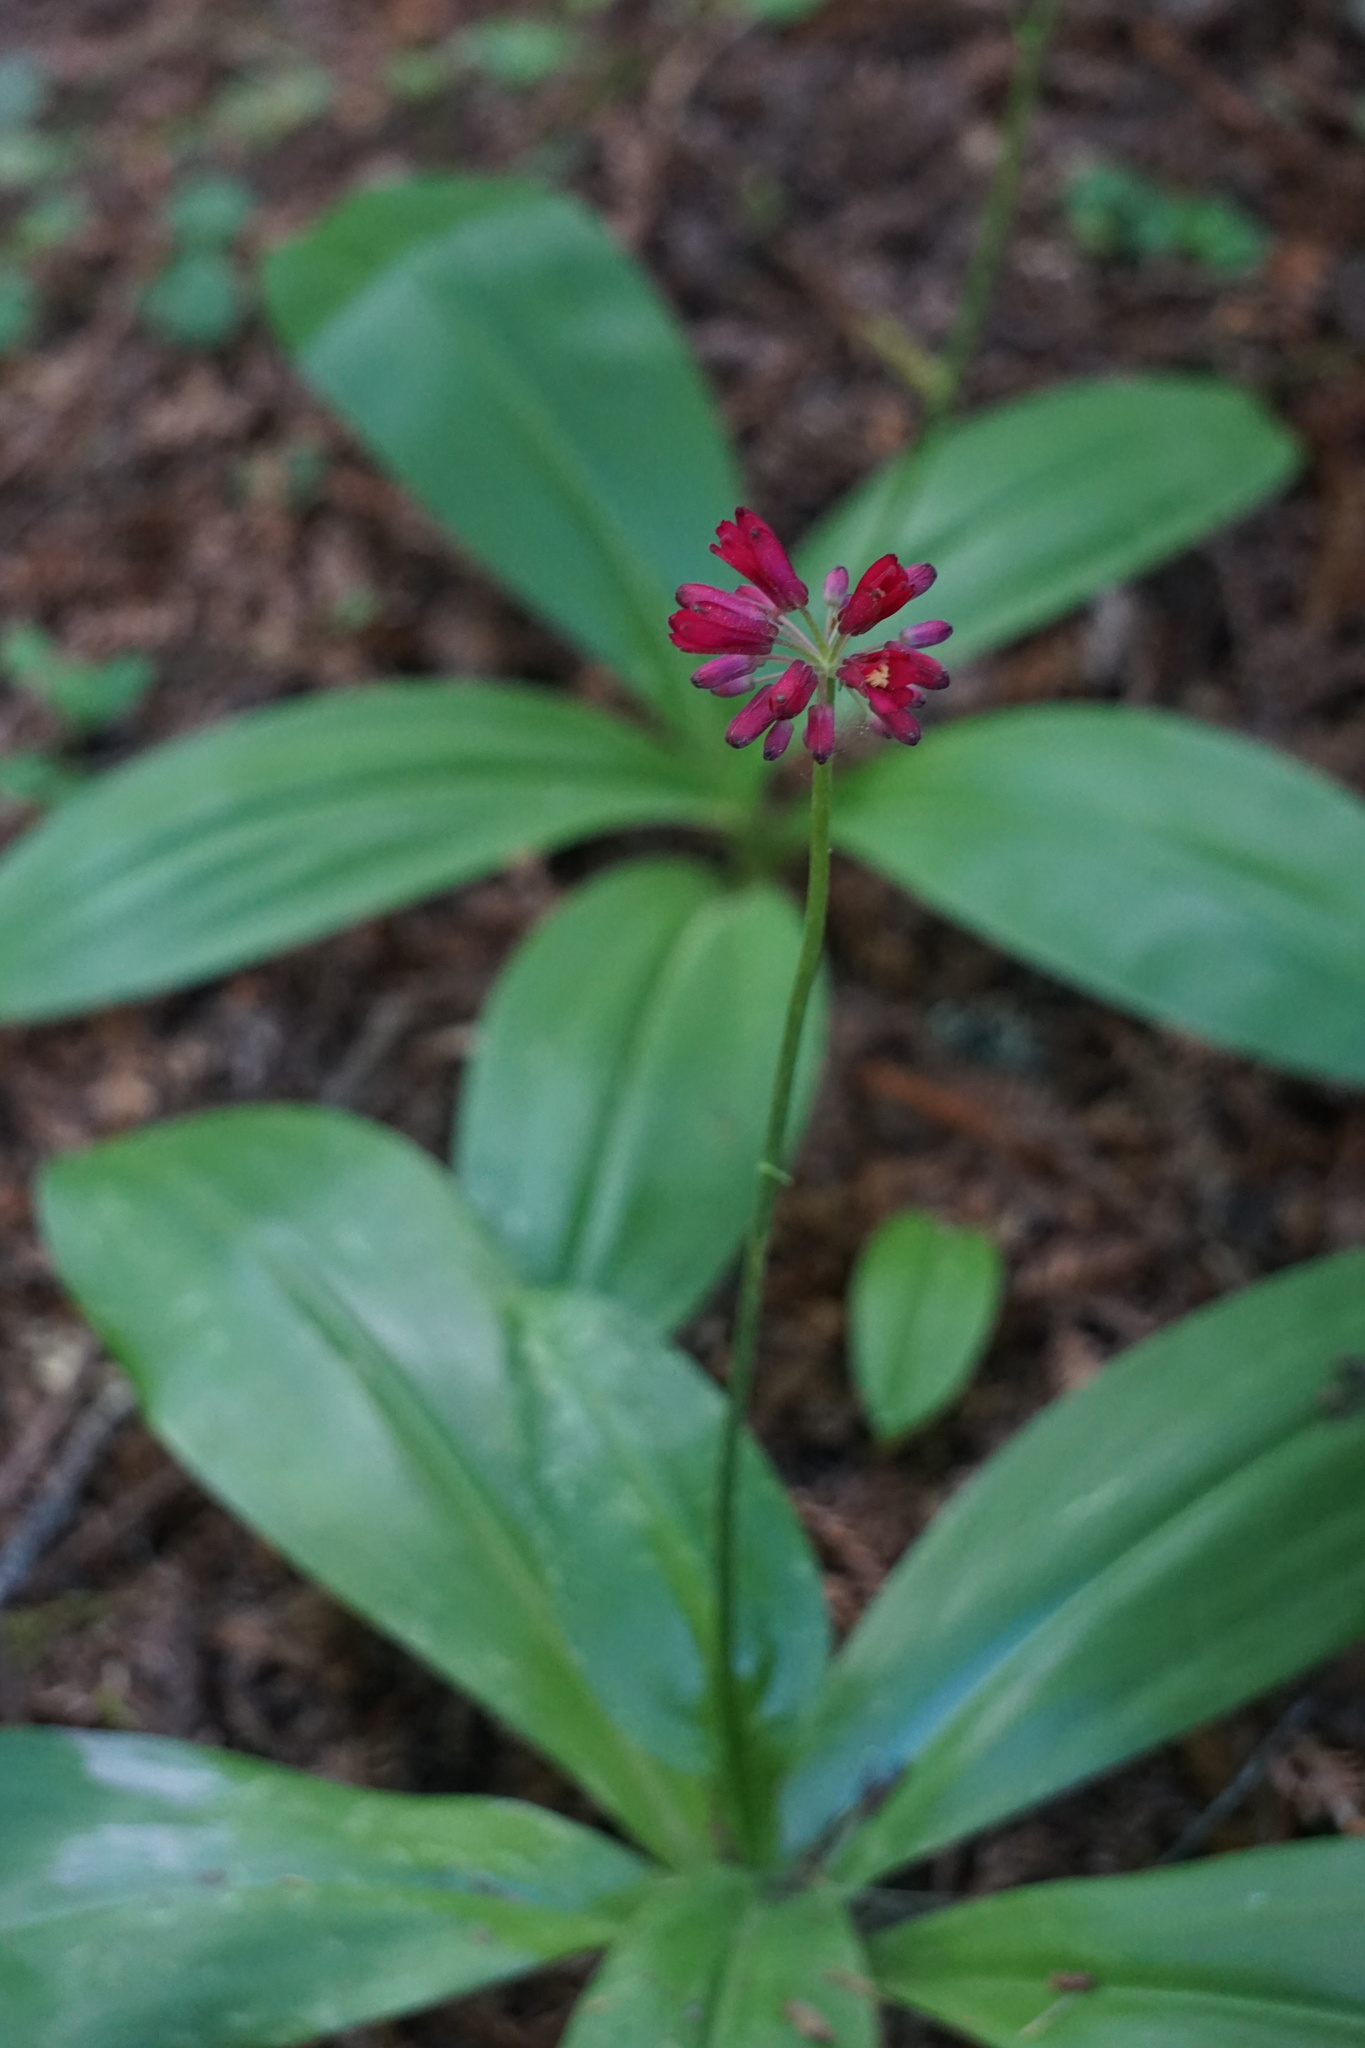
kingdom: Plantae
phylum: Tracheophyta
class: Liliopsida
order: Liliales
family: Liliaceae
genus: Clintonia
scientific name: Clintonia andrewsiana
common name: Red clintonia
